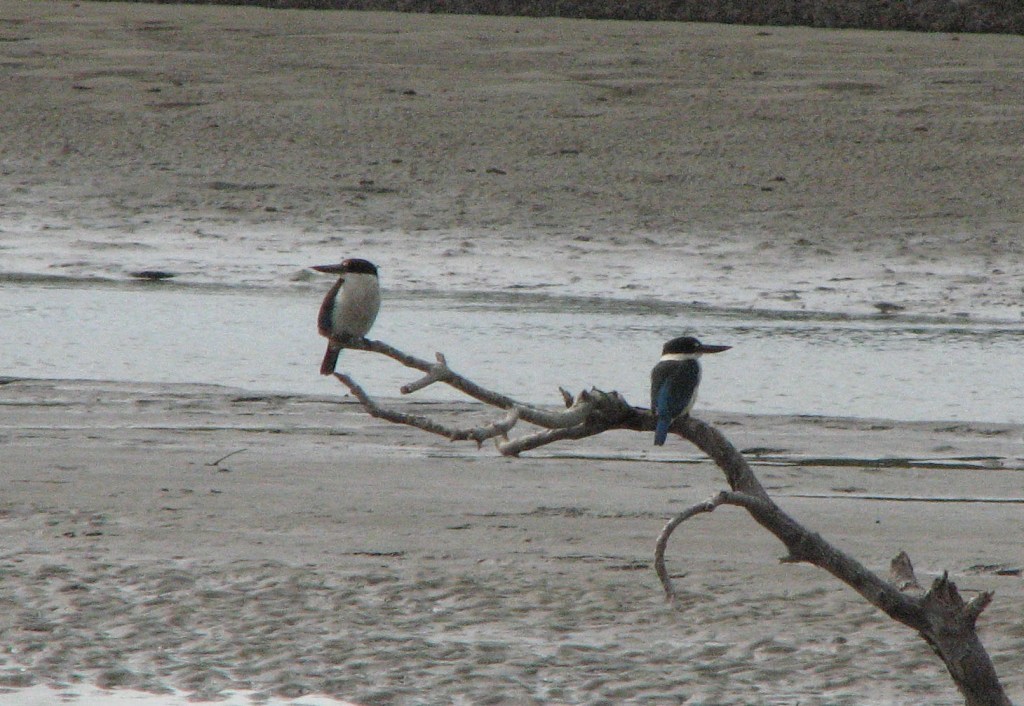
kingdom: Animalia
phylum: Chordata
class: Aves
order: Coraciiformes
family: Alcedinidae
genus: Todiramphus
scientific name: Todiramphus sordidus
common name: Torresian kingfisher
